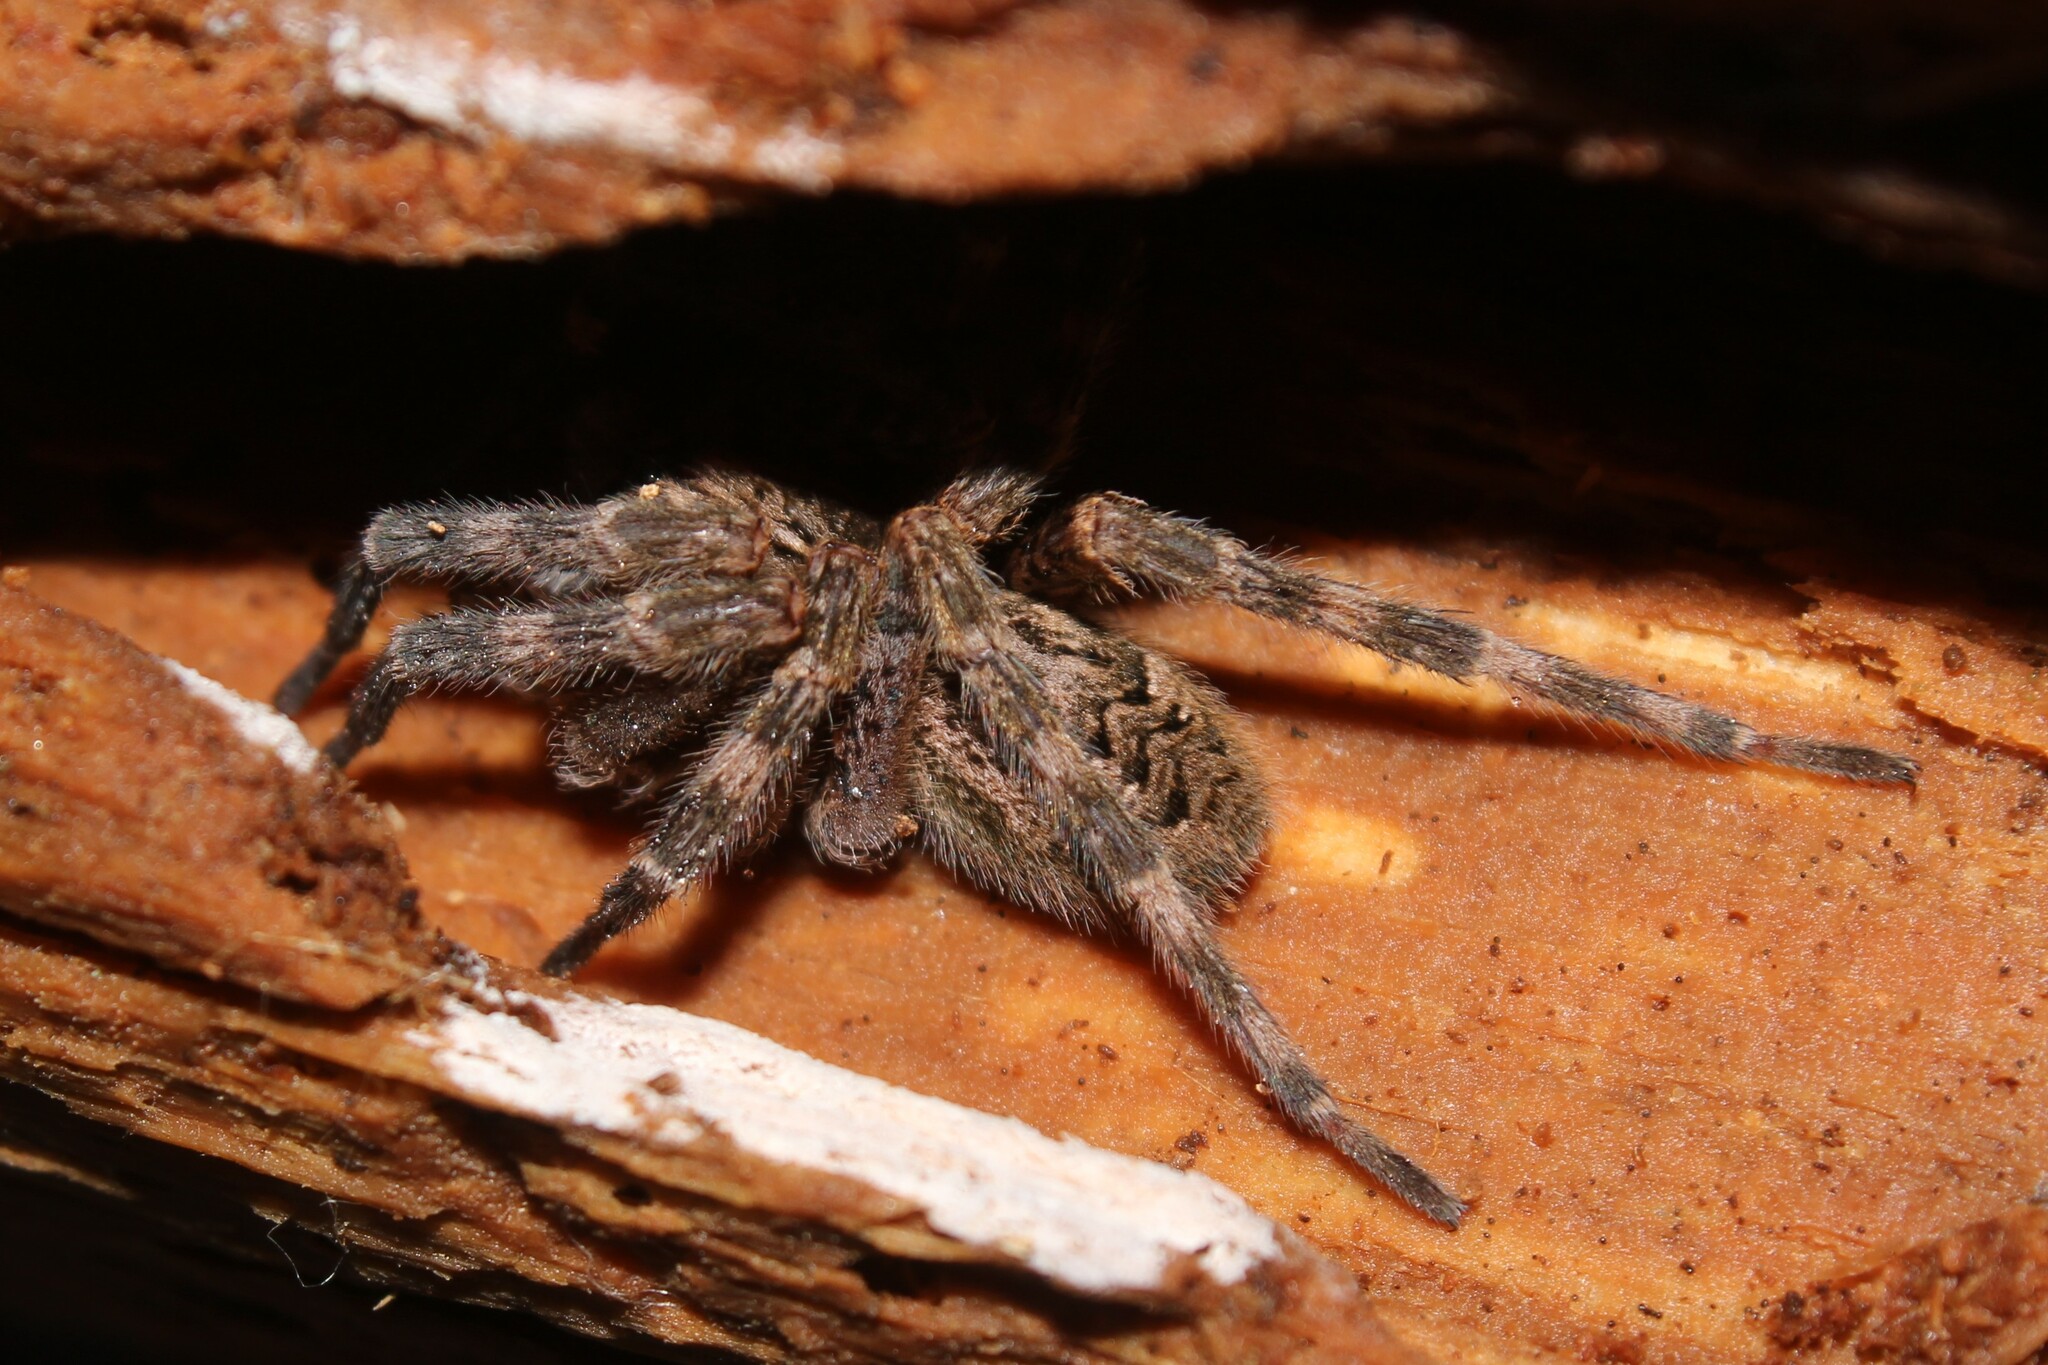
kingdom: Animalia
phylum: Arthropoda
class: Arachnida
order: Araneae
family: Pisauridae
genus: Dolomedes
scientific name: Dolomedes tenebrosus
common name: Dark fishing spider
